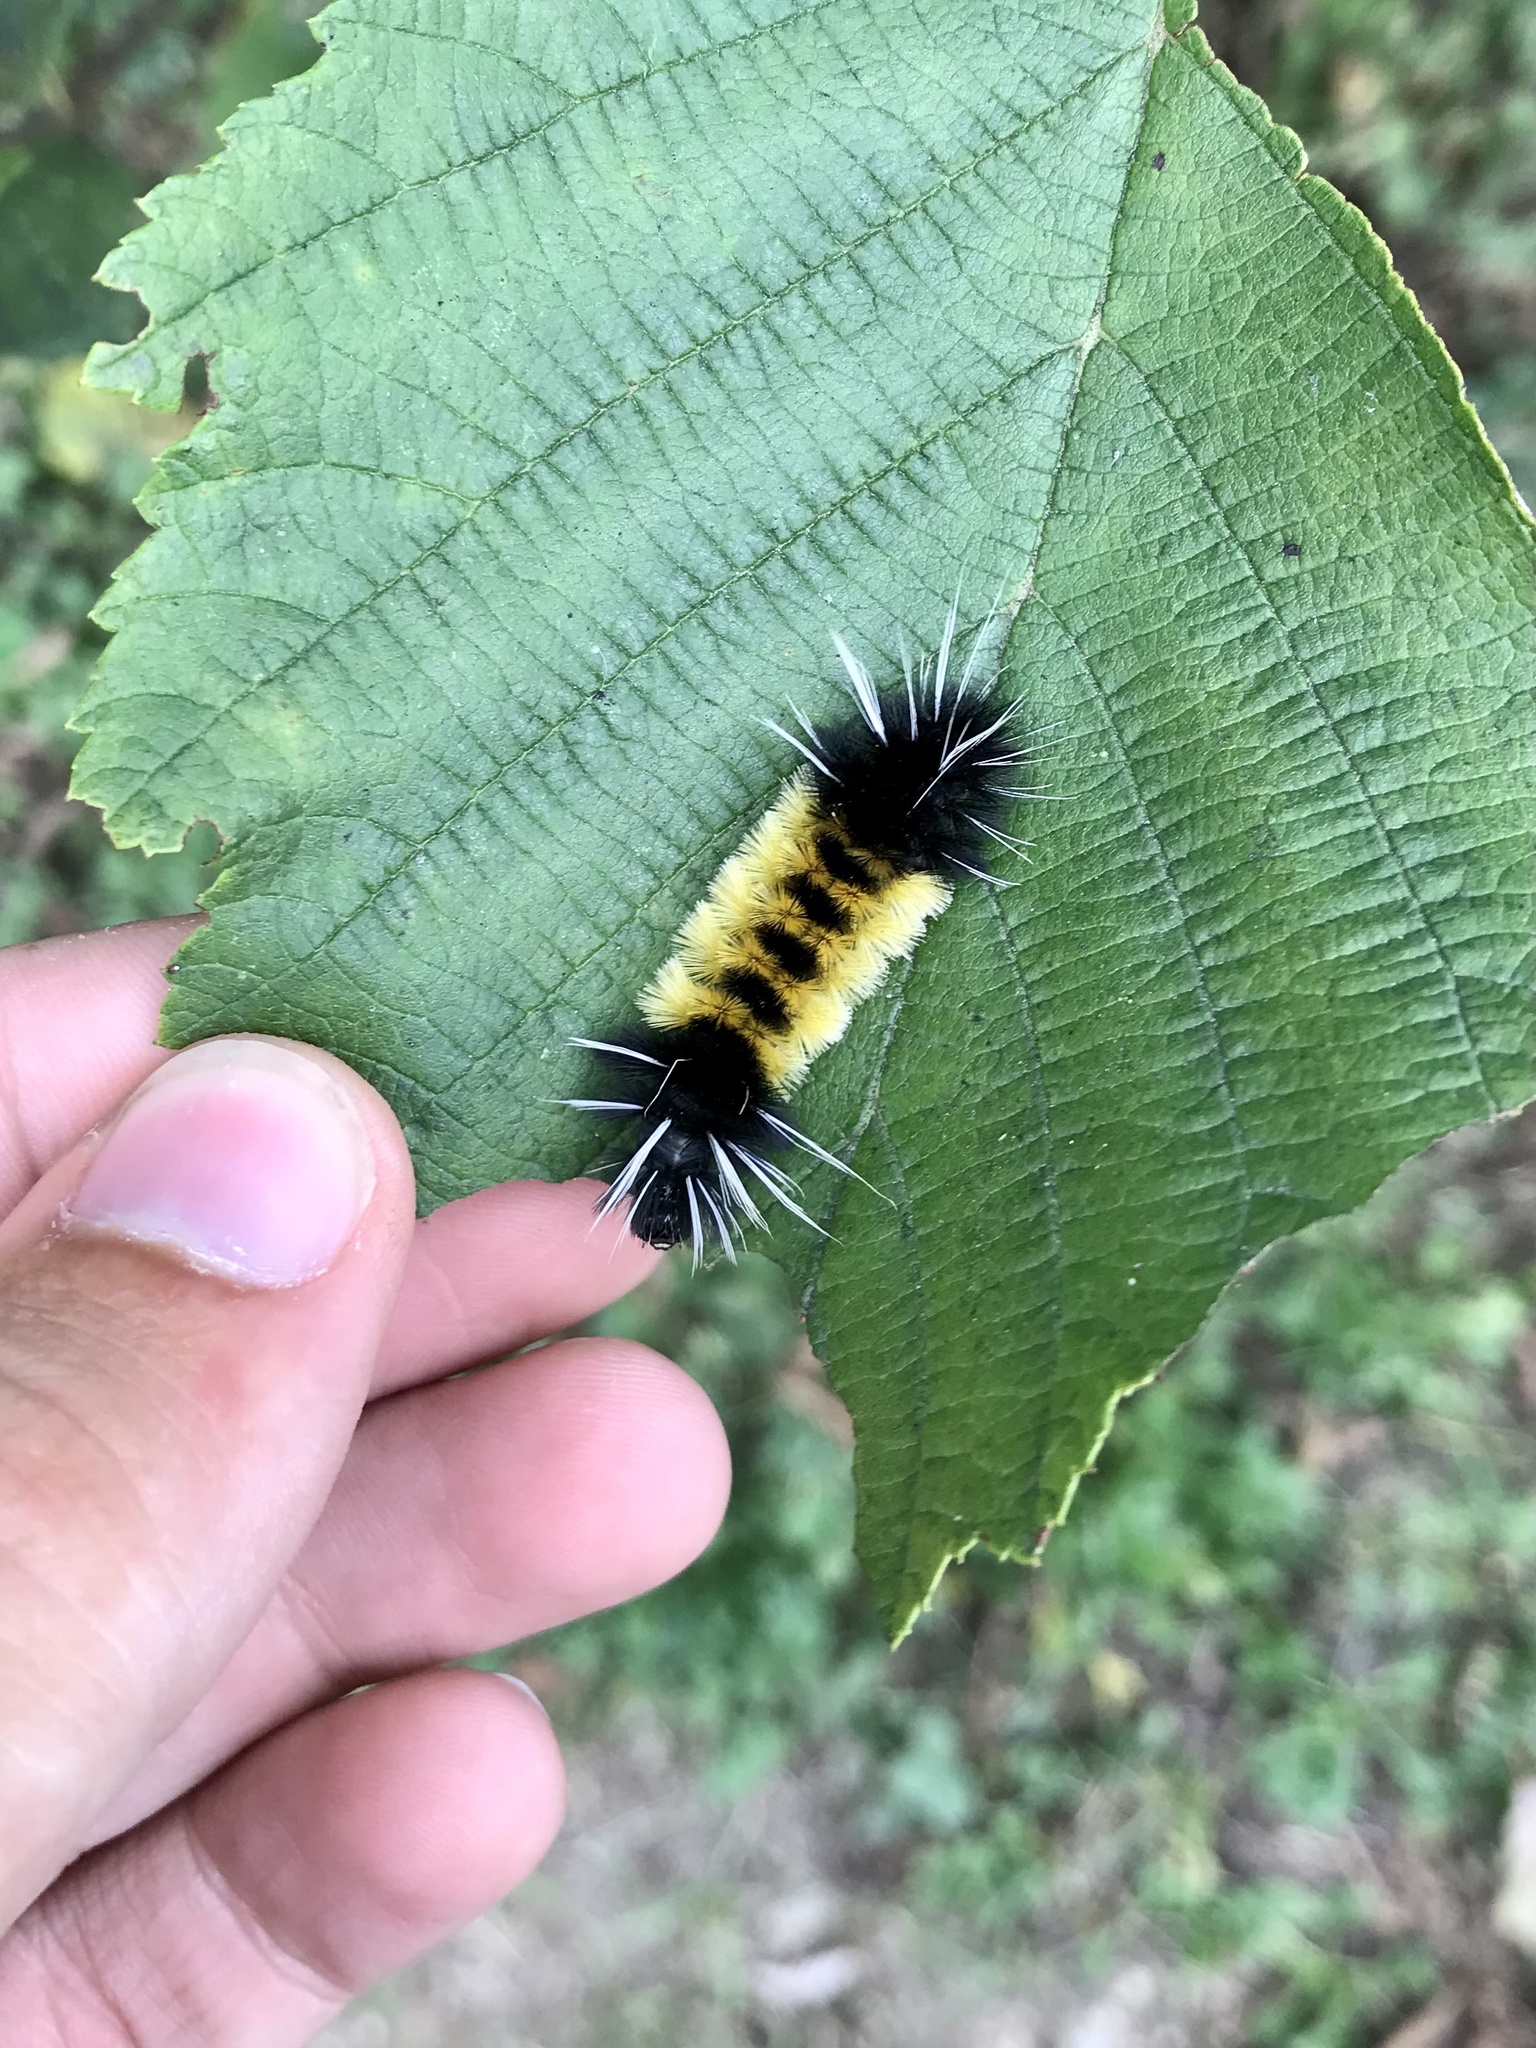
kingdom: Animalia
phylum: Arthropoda
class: Insecta
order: Lepidoptera
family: Erebidae
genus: Lophocampa
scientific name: Lophocampa maculata
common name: Spotted tussock moth
